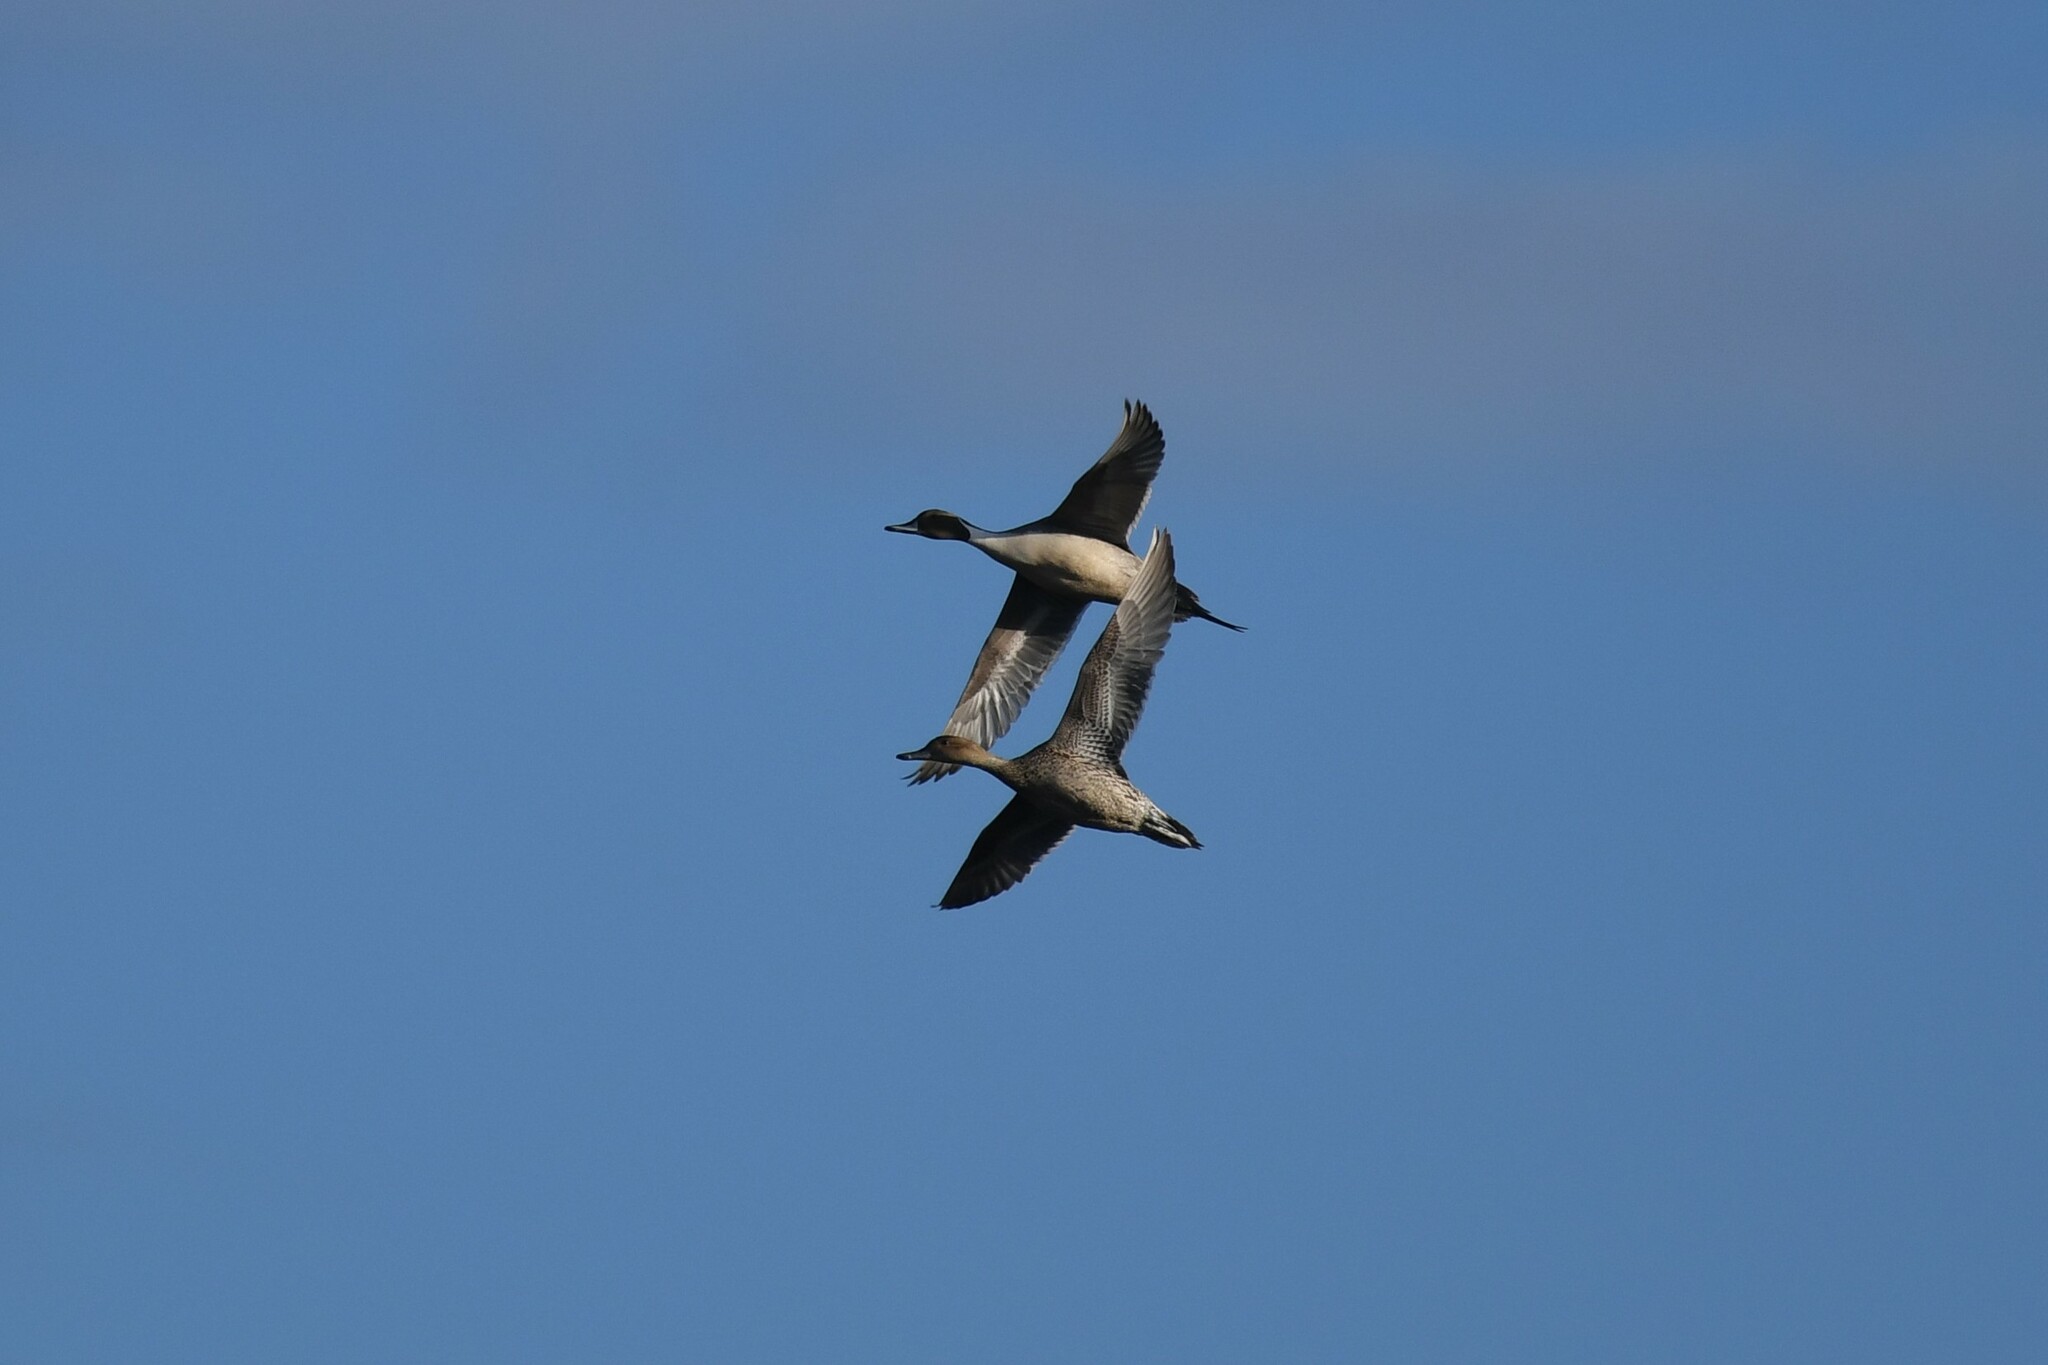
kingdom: Animalia
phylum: Chordata
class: Aves
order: Anseriformes
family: Anatidae
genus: Anas
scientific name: Anas acuta
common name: Northern pintail
